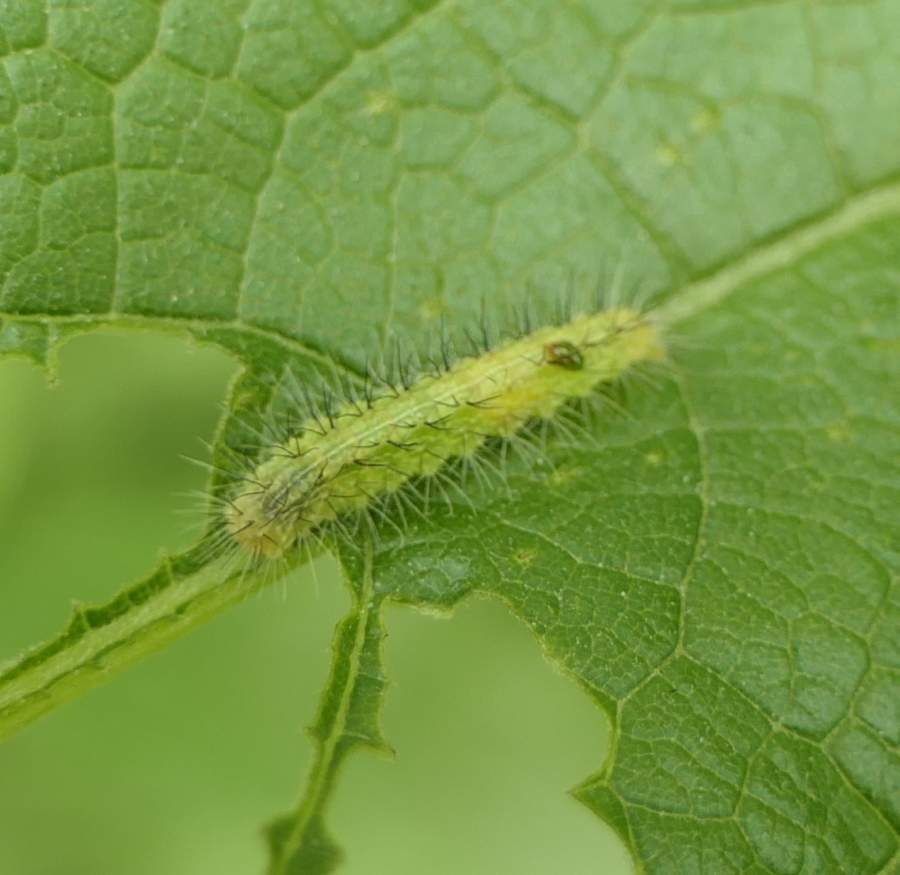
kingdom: Animalia
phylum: Arthropoda
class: Insecta
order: Lepidoptera
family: Pterophoridae
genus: Oidaematophorus
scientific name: Oidaematophorus eupatorii
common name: Eupatorium plume moth
